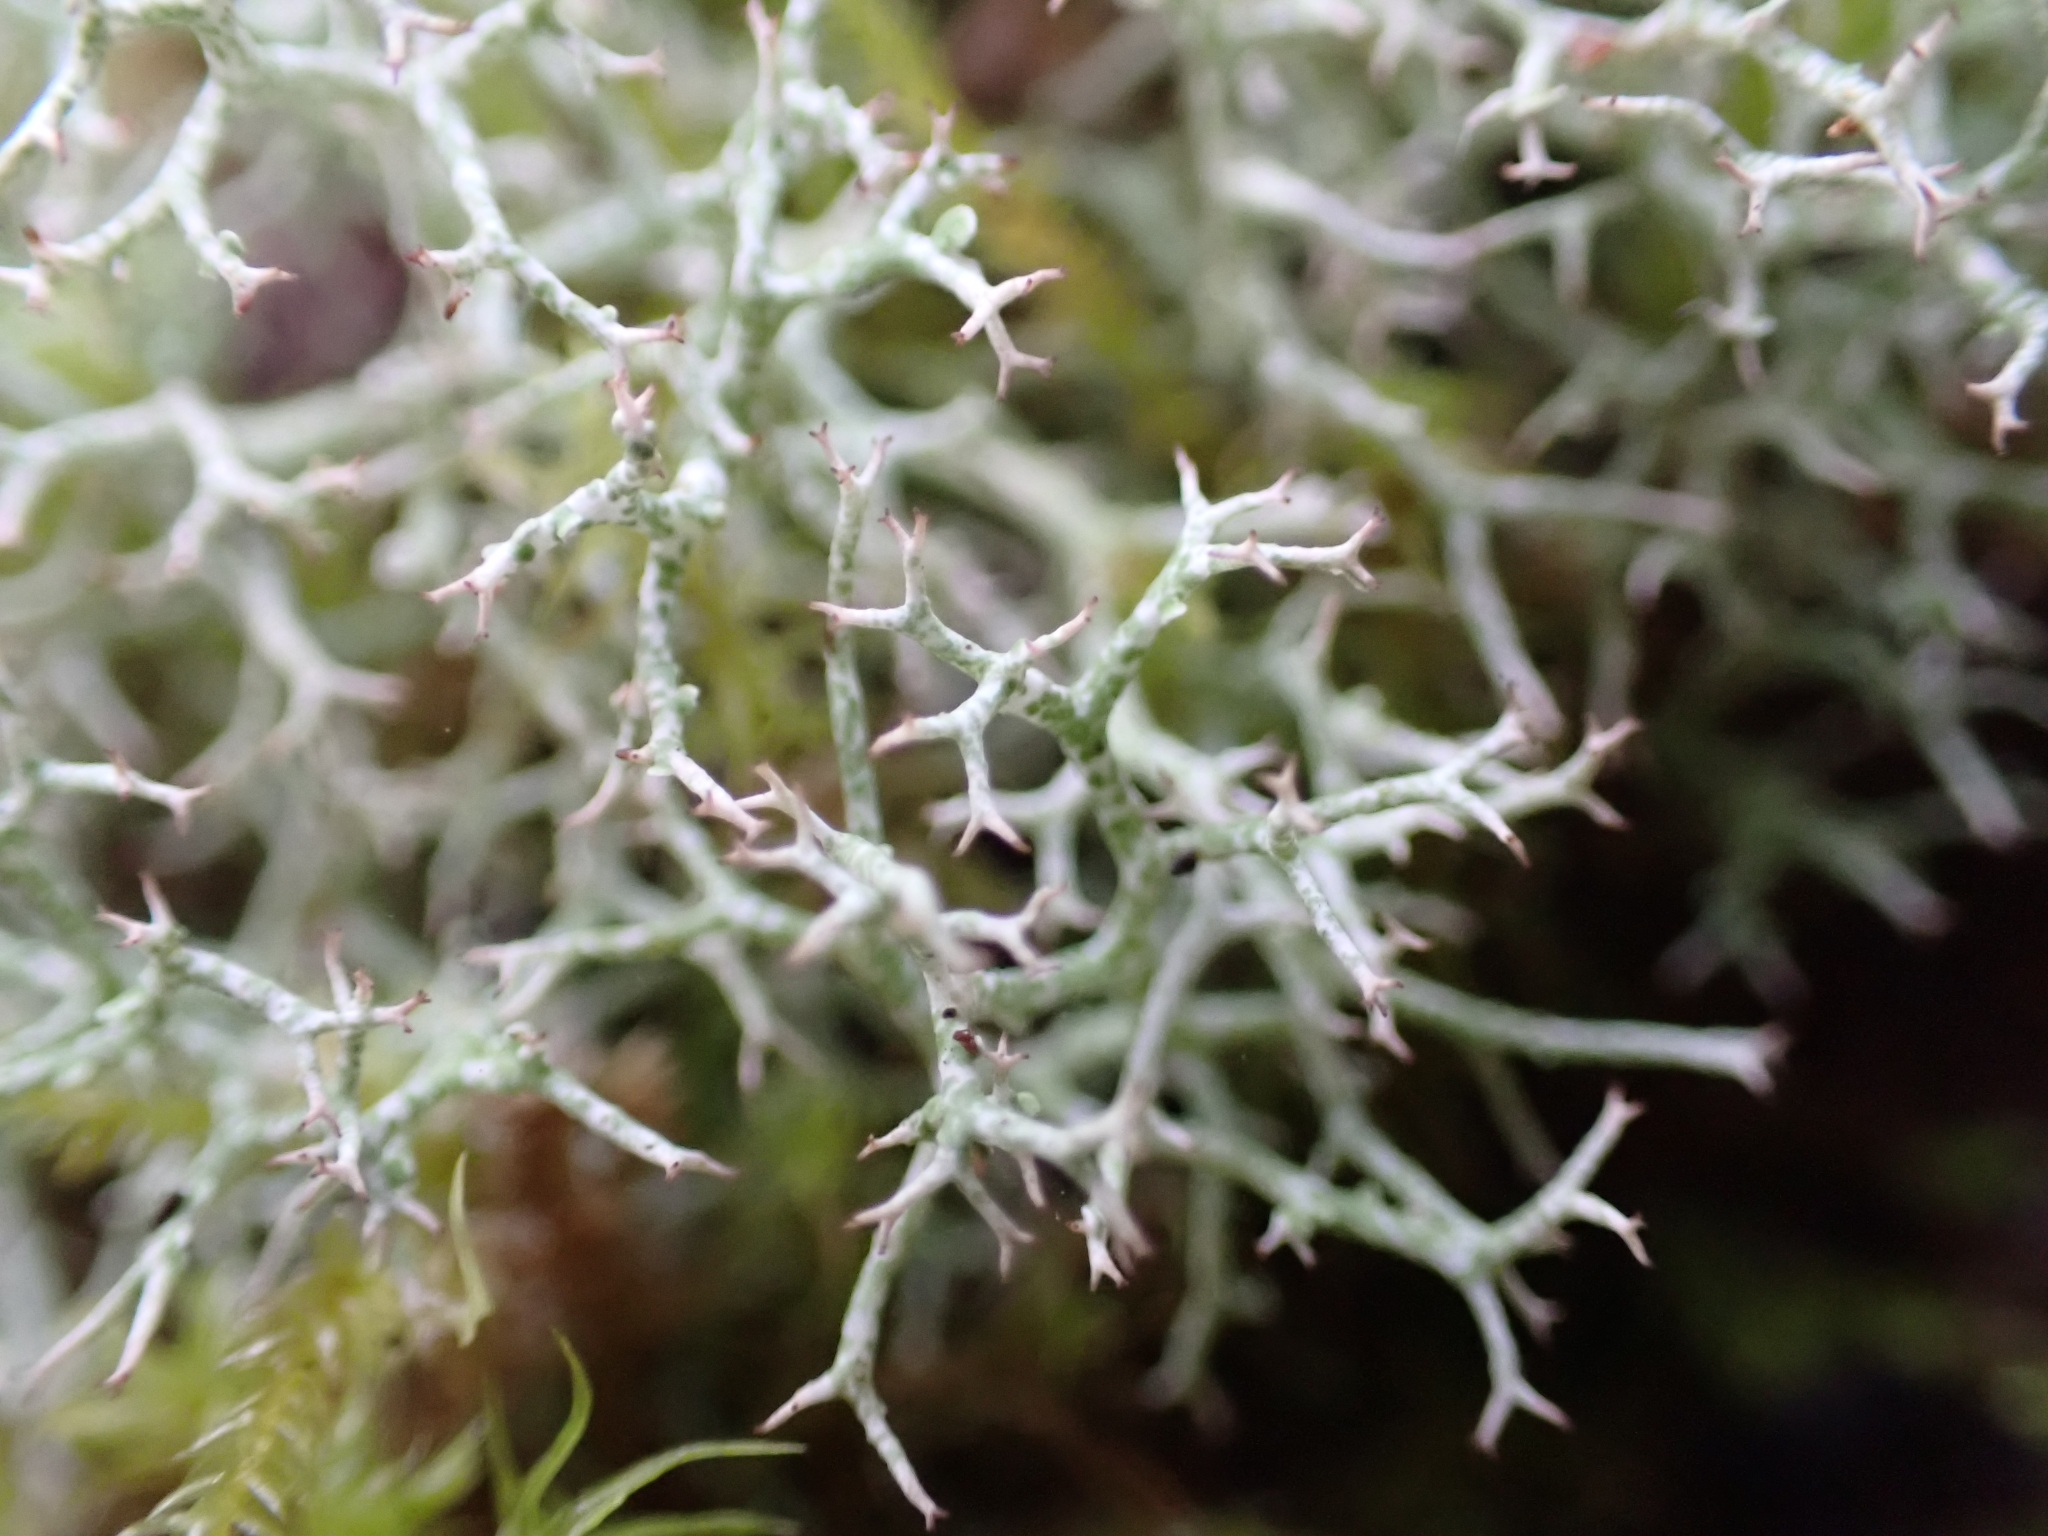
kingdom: Fungi
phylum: Ascomycota
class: Lecanoromycetes
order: Lecanorales
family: Cladoniaceae
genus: Cladonia
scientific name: Cladonia rangiformis
